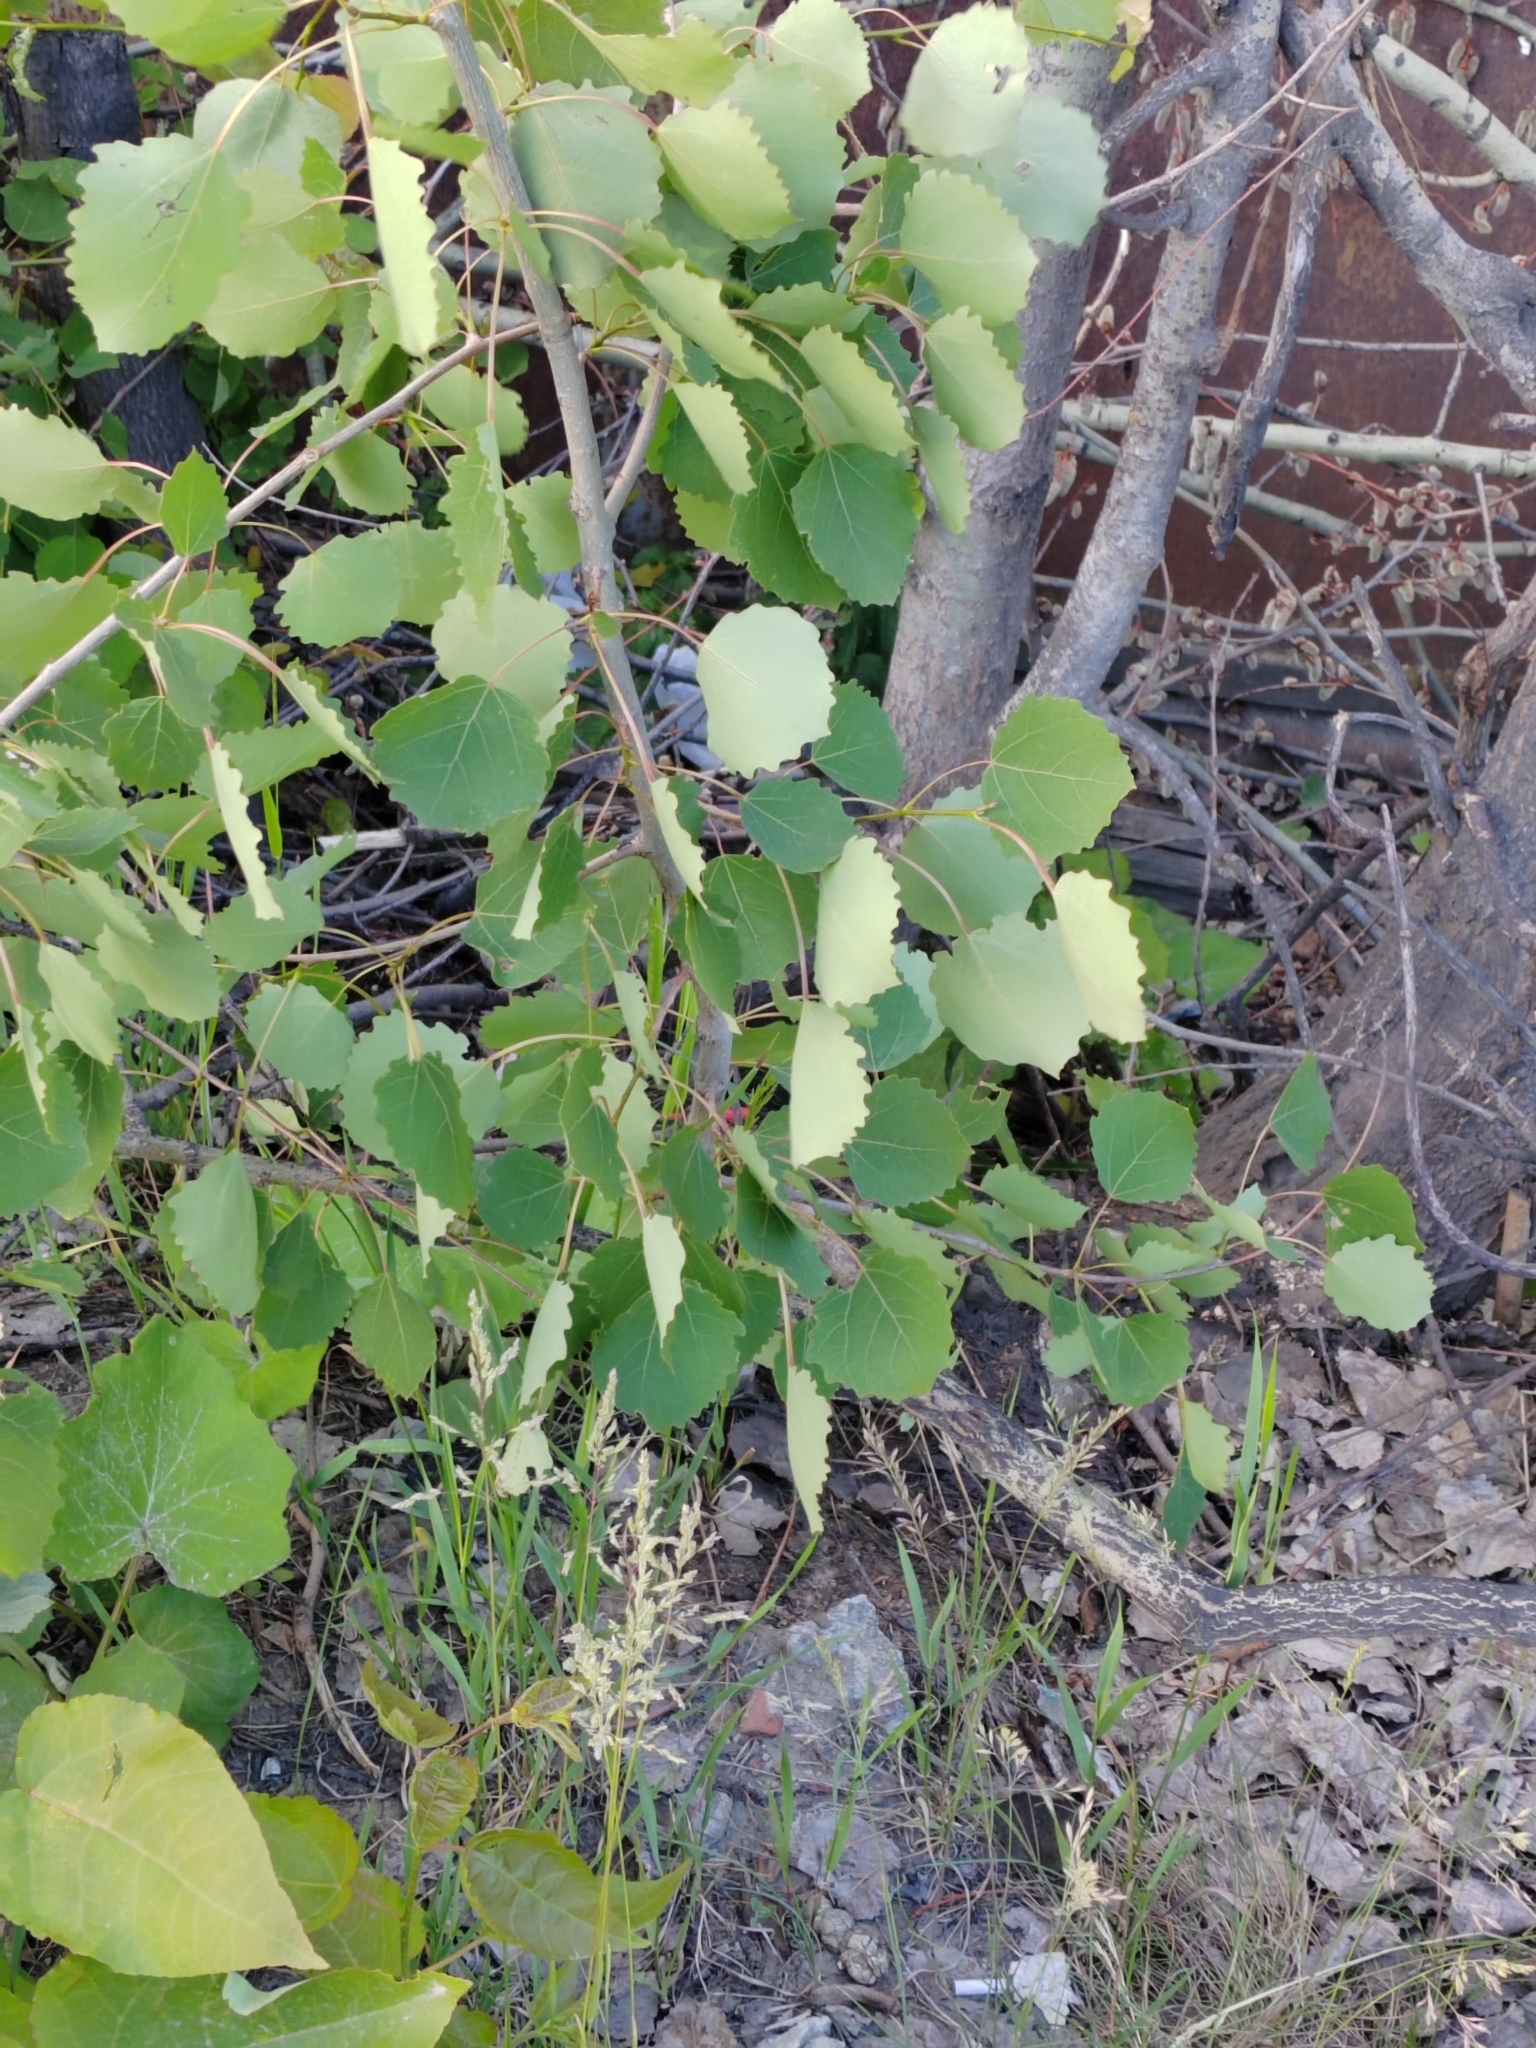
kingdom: Plantae
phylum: Tracheophyta
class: Magnoliopsida
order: Malpighiales
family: Salicaceae
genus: Populus
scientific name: Populus tremula
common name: European aspen
